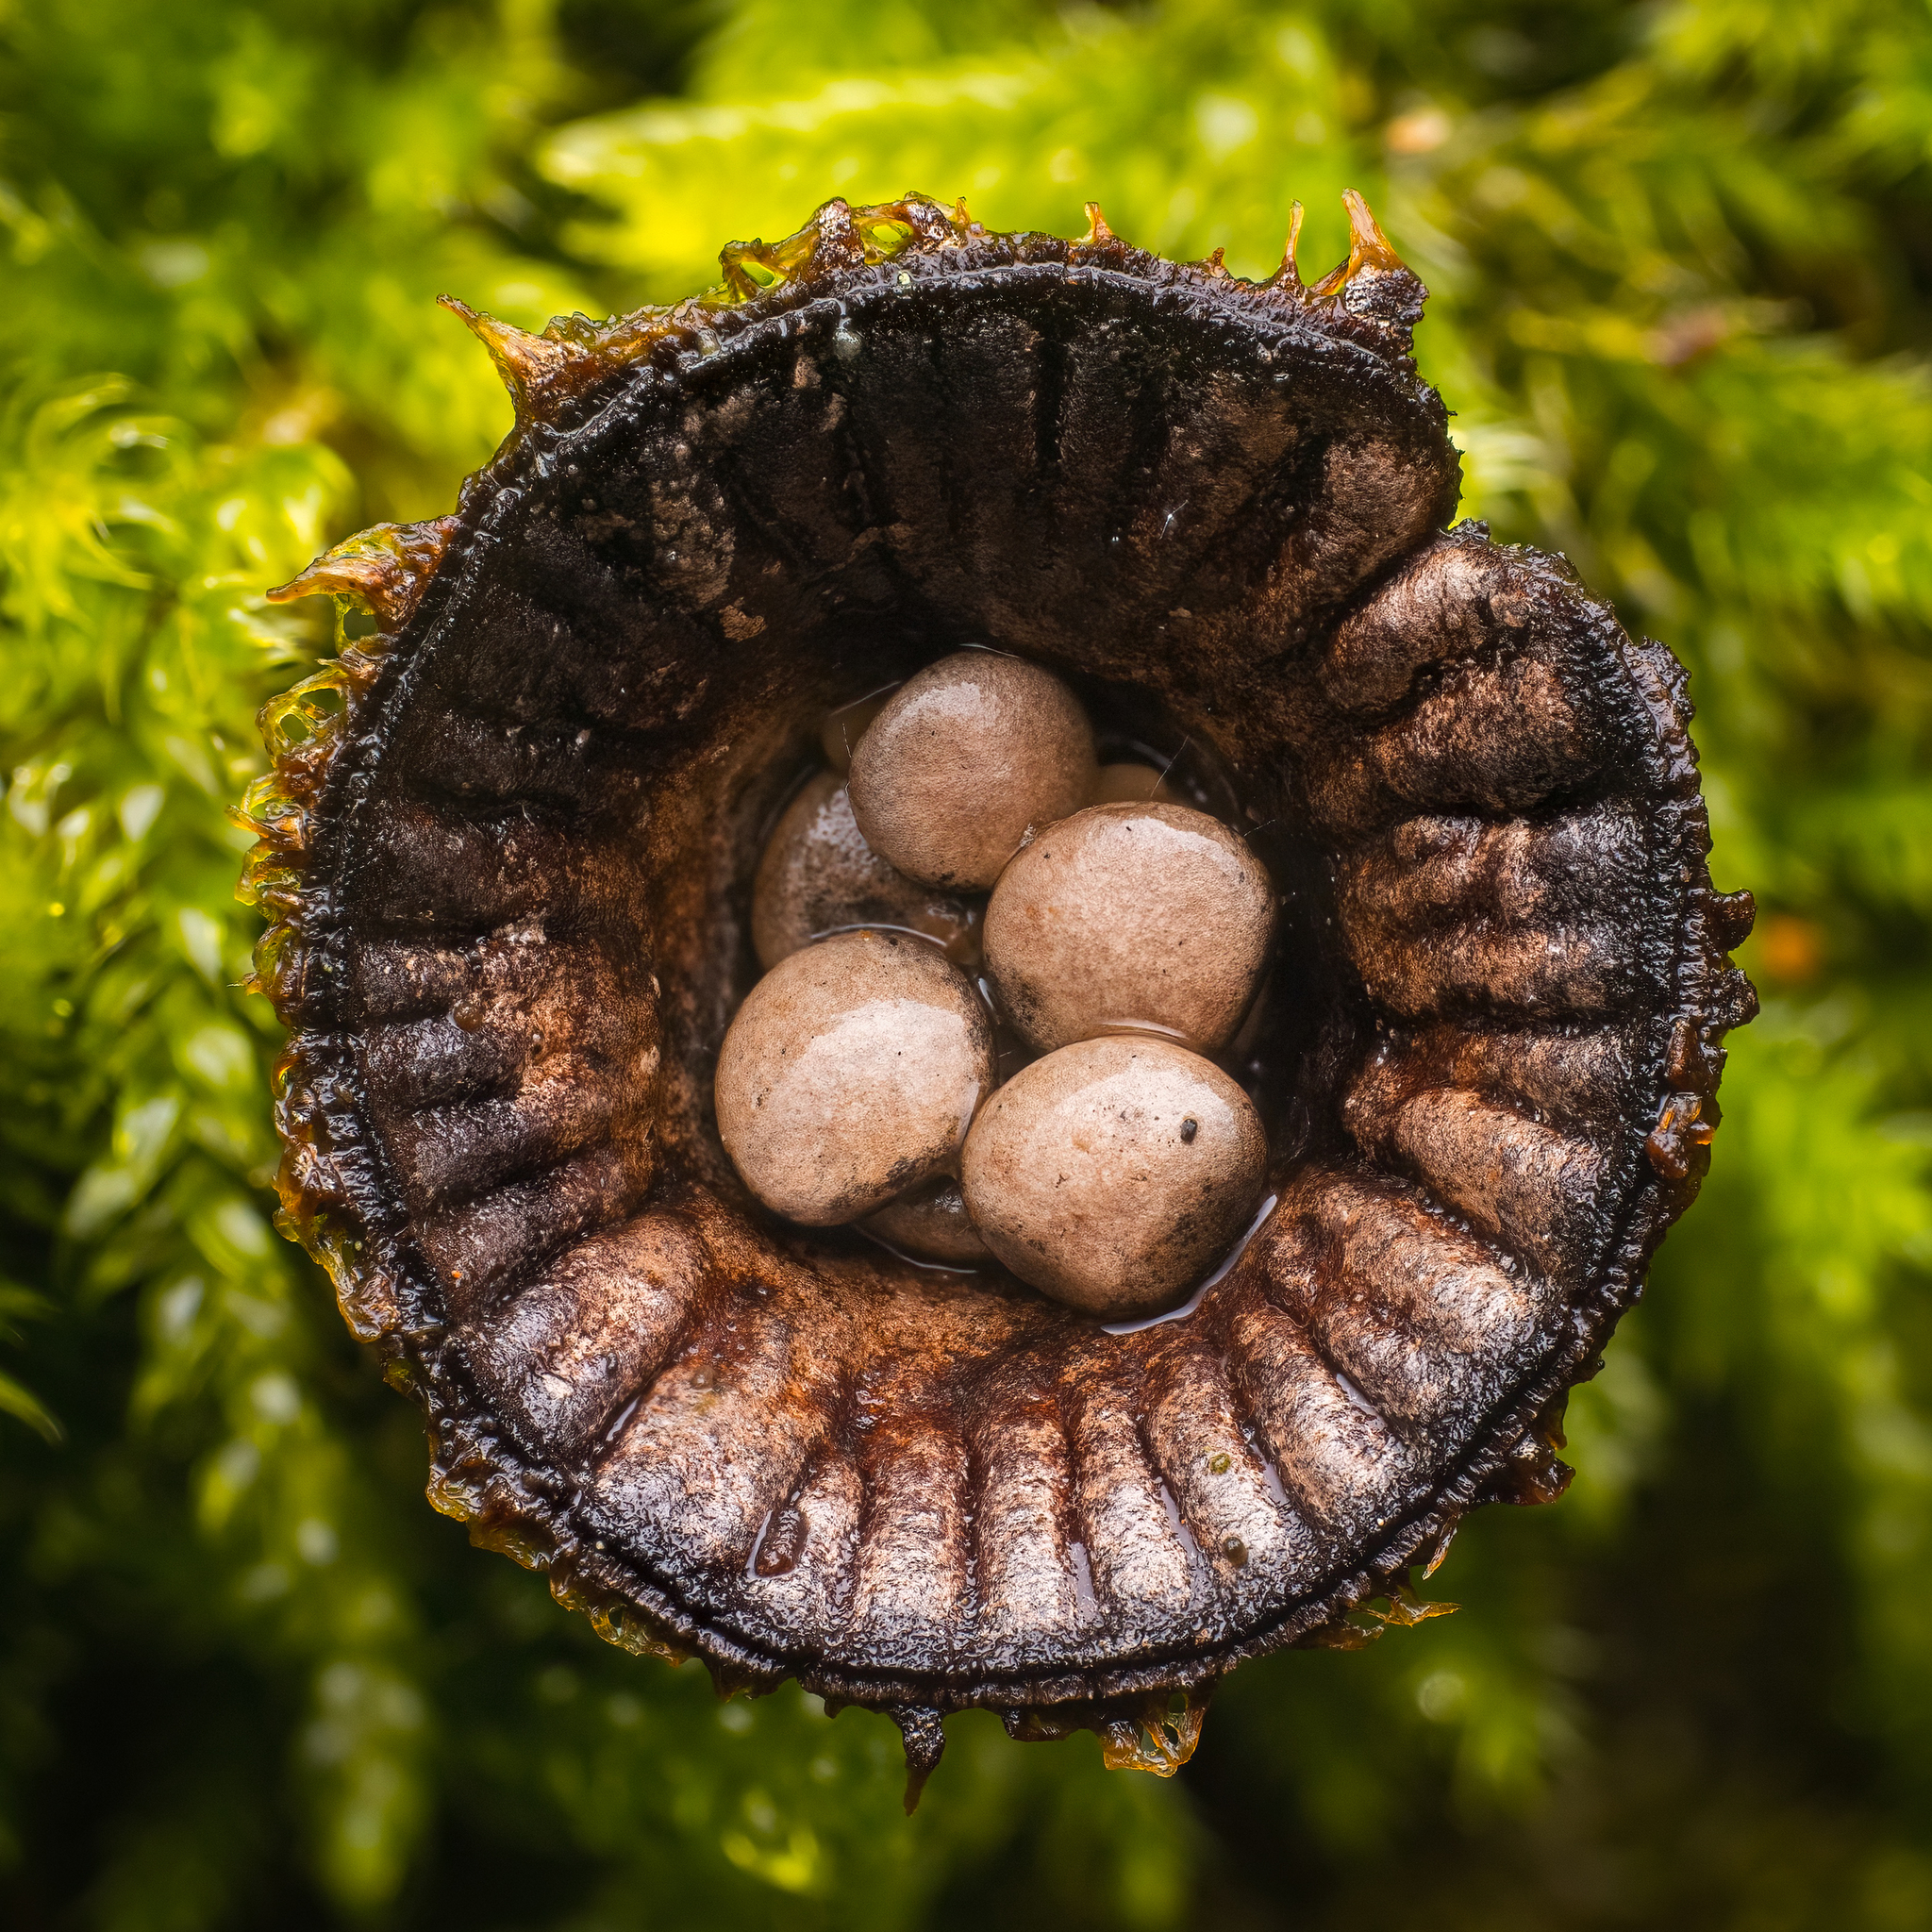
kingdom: Fungi
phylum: Basidiomycota
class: Agaricomycetes
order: Agaricales
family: Agaricaceae
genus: Cyathus
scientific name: Cyathus striatus
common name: Fluted bird's nest
